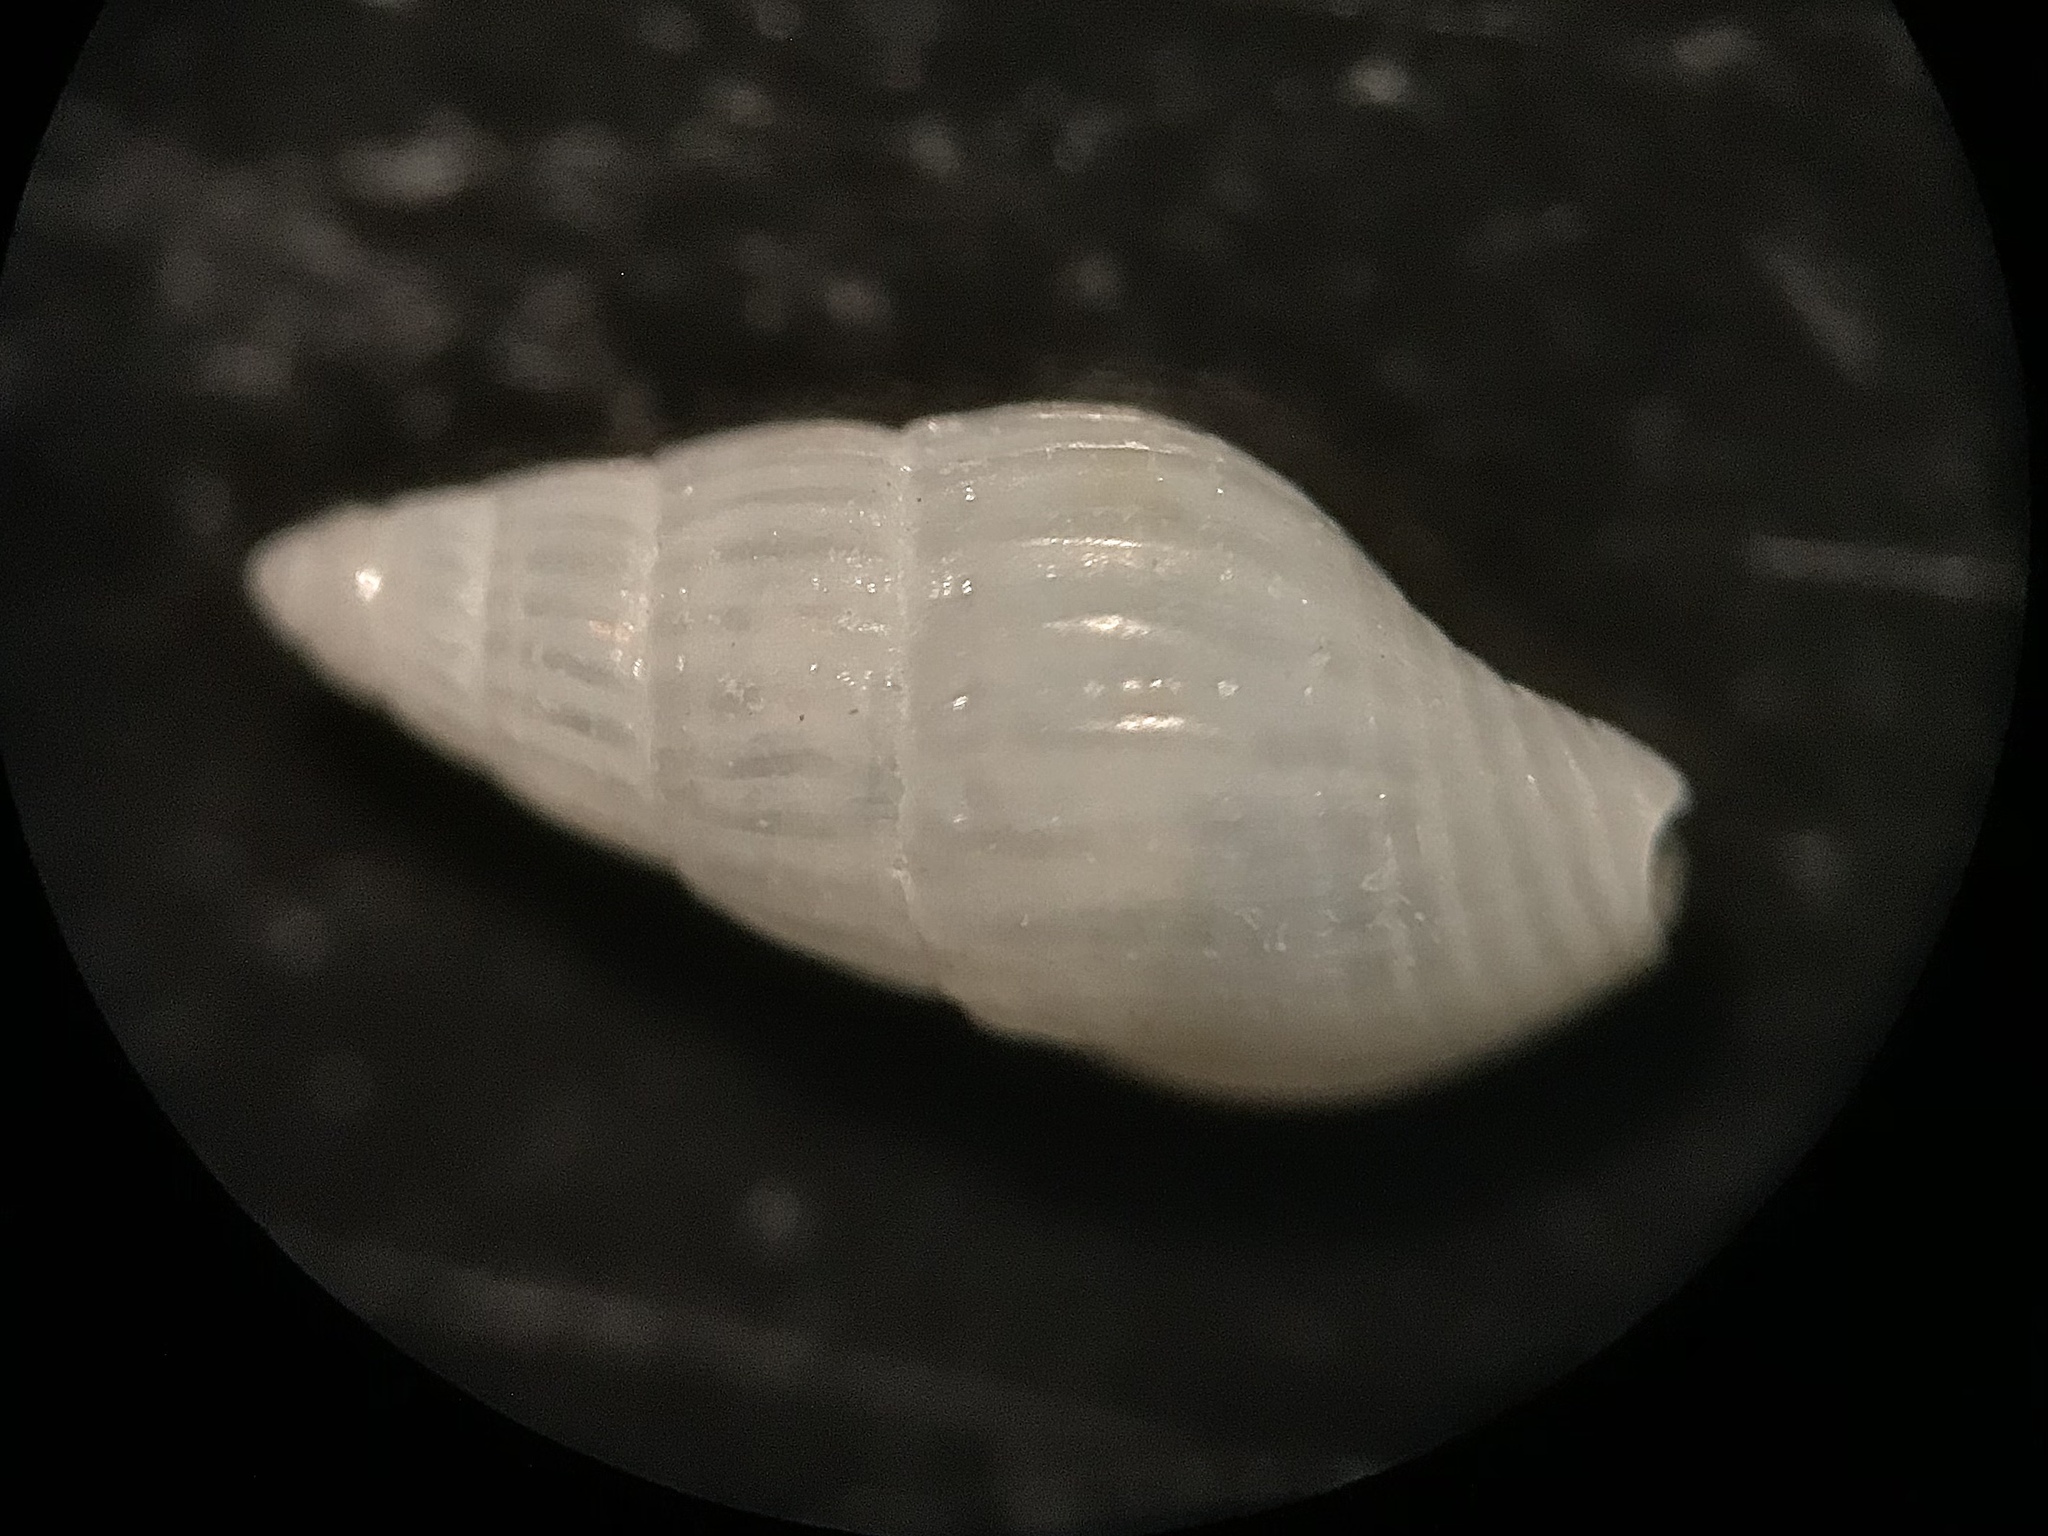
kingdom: Animalia
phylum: Mollusca
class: Gastropoda
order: Neogastropoda
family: Columbellidae
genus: Parvanachis
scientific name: Parvanachis obesa
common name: Fat dovesnail
